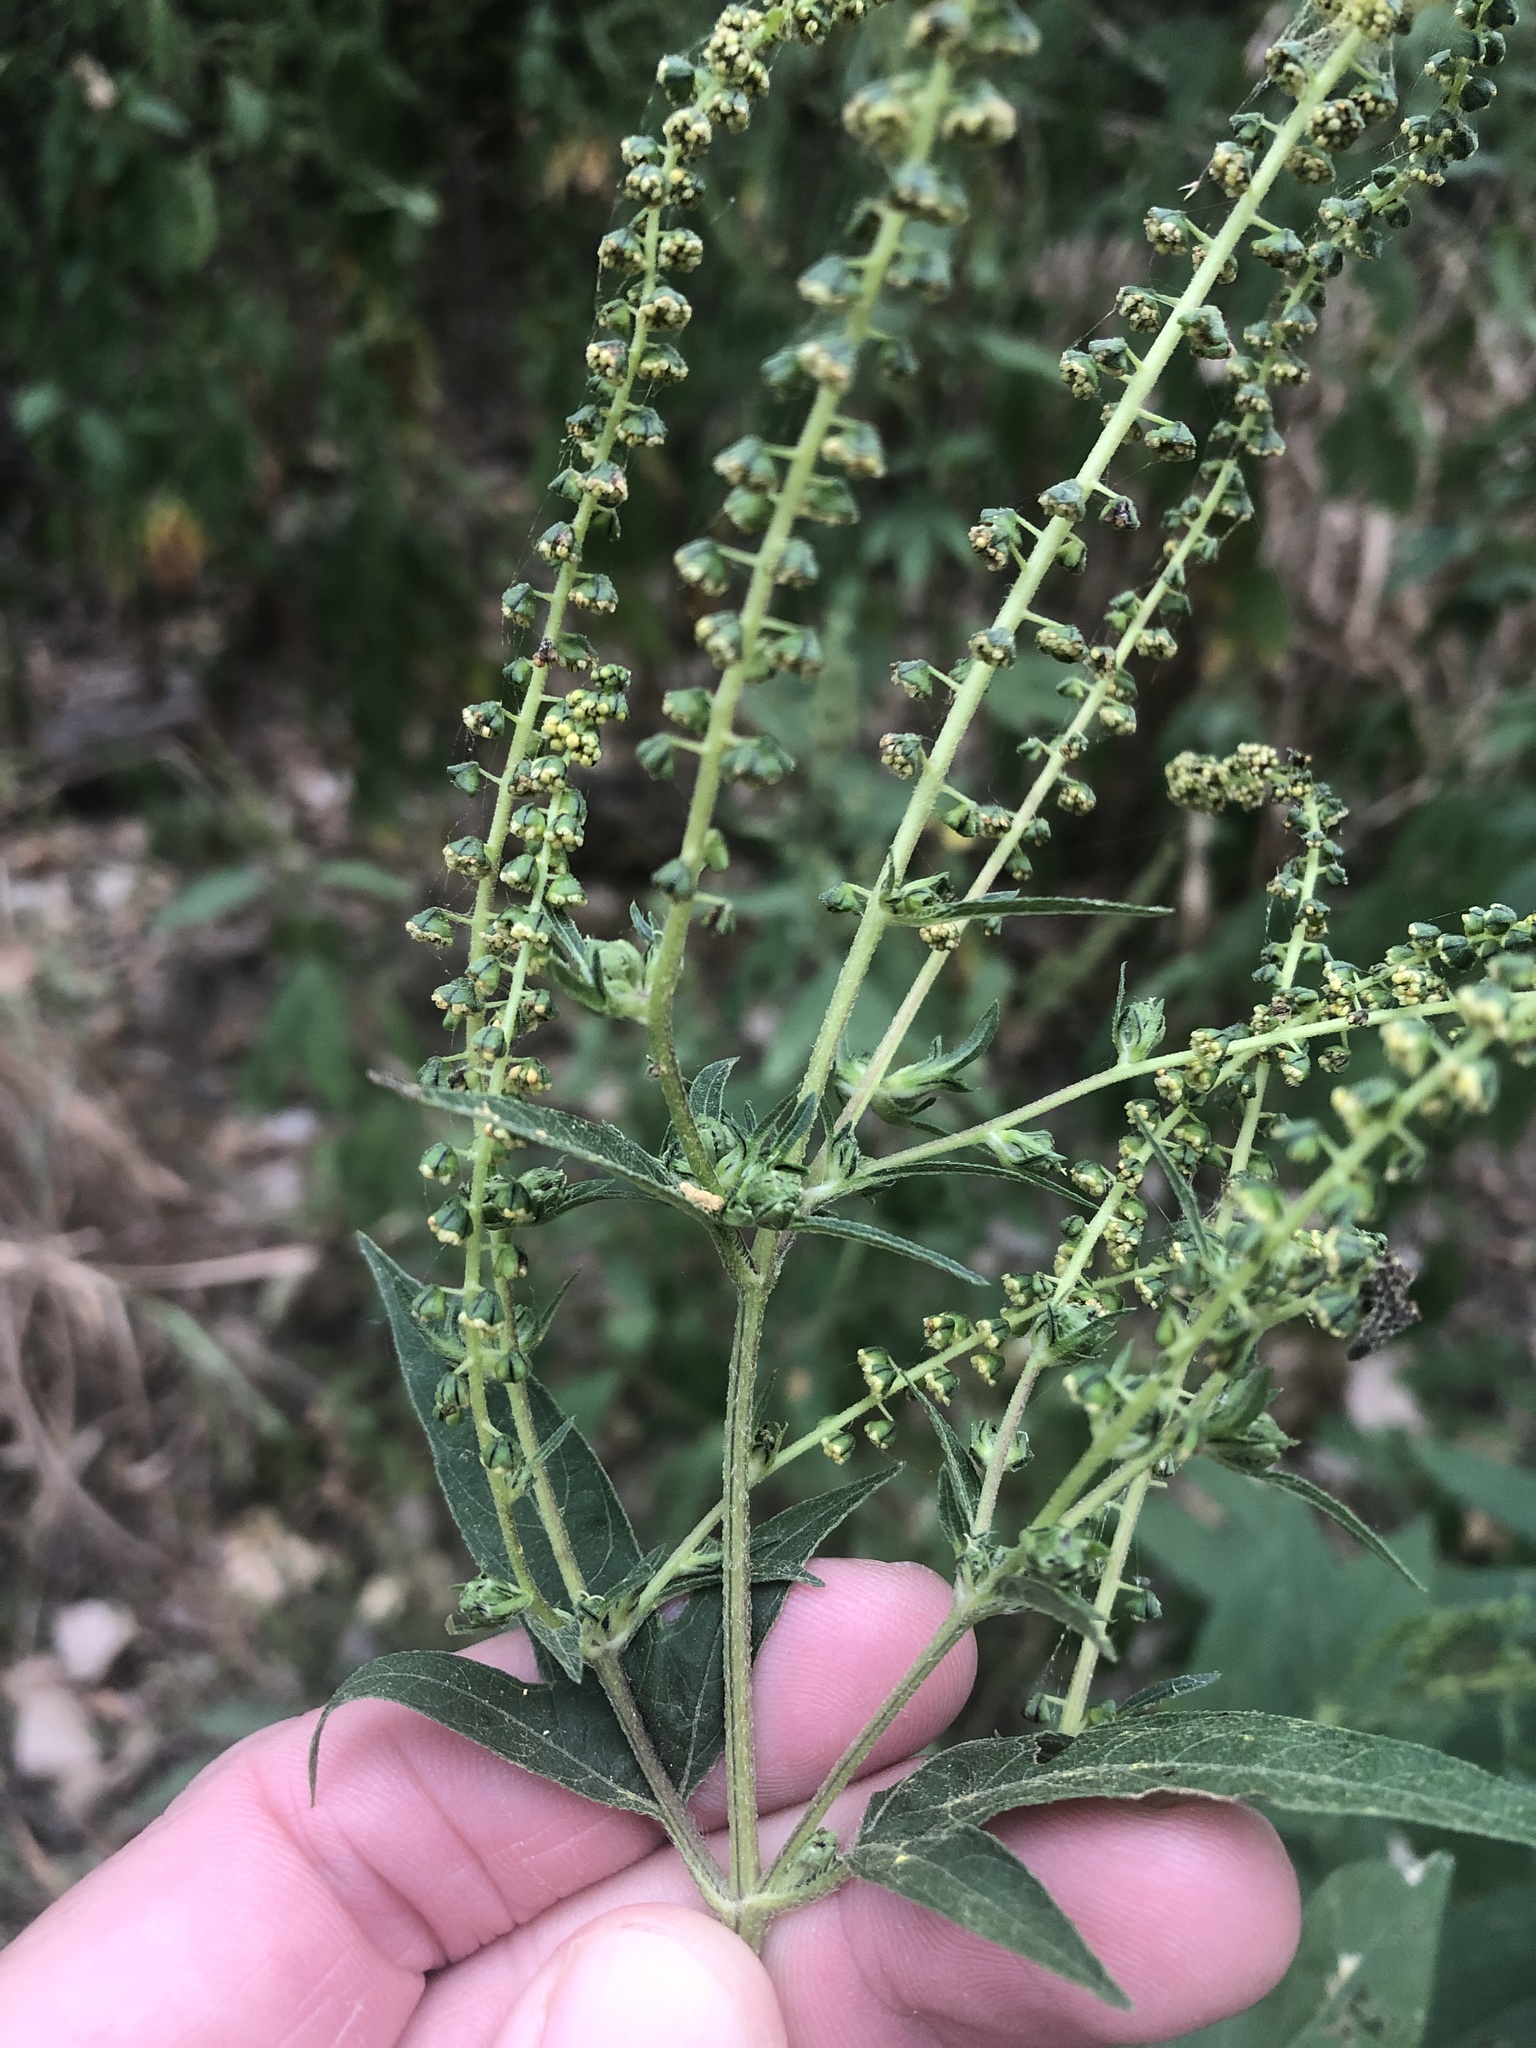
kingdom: Plantae
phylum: Tracheophyta
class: Magnoliopsida
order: Asterales
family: Asteraceae
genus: Ambrosia
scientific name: Ambrosia trifida
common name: Giant ragweed
